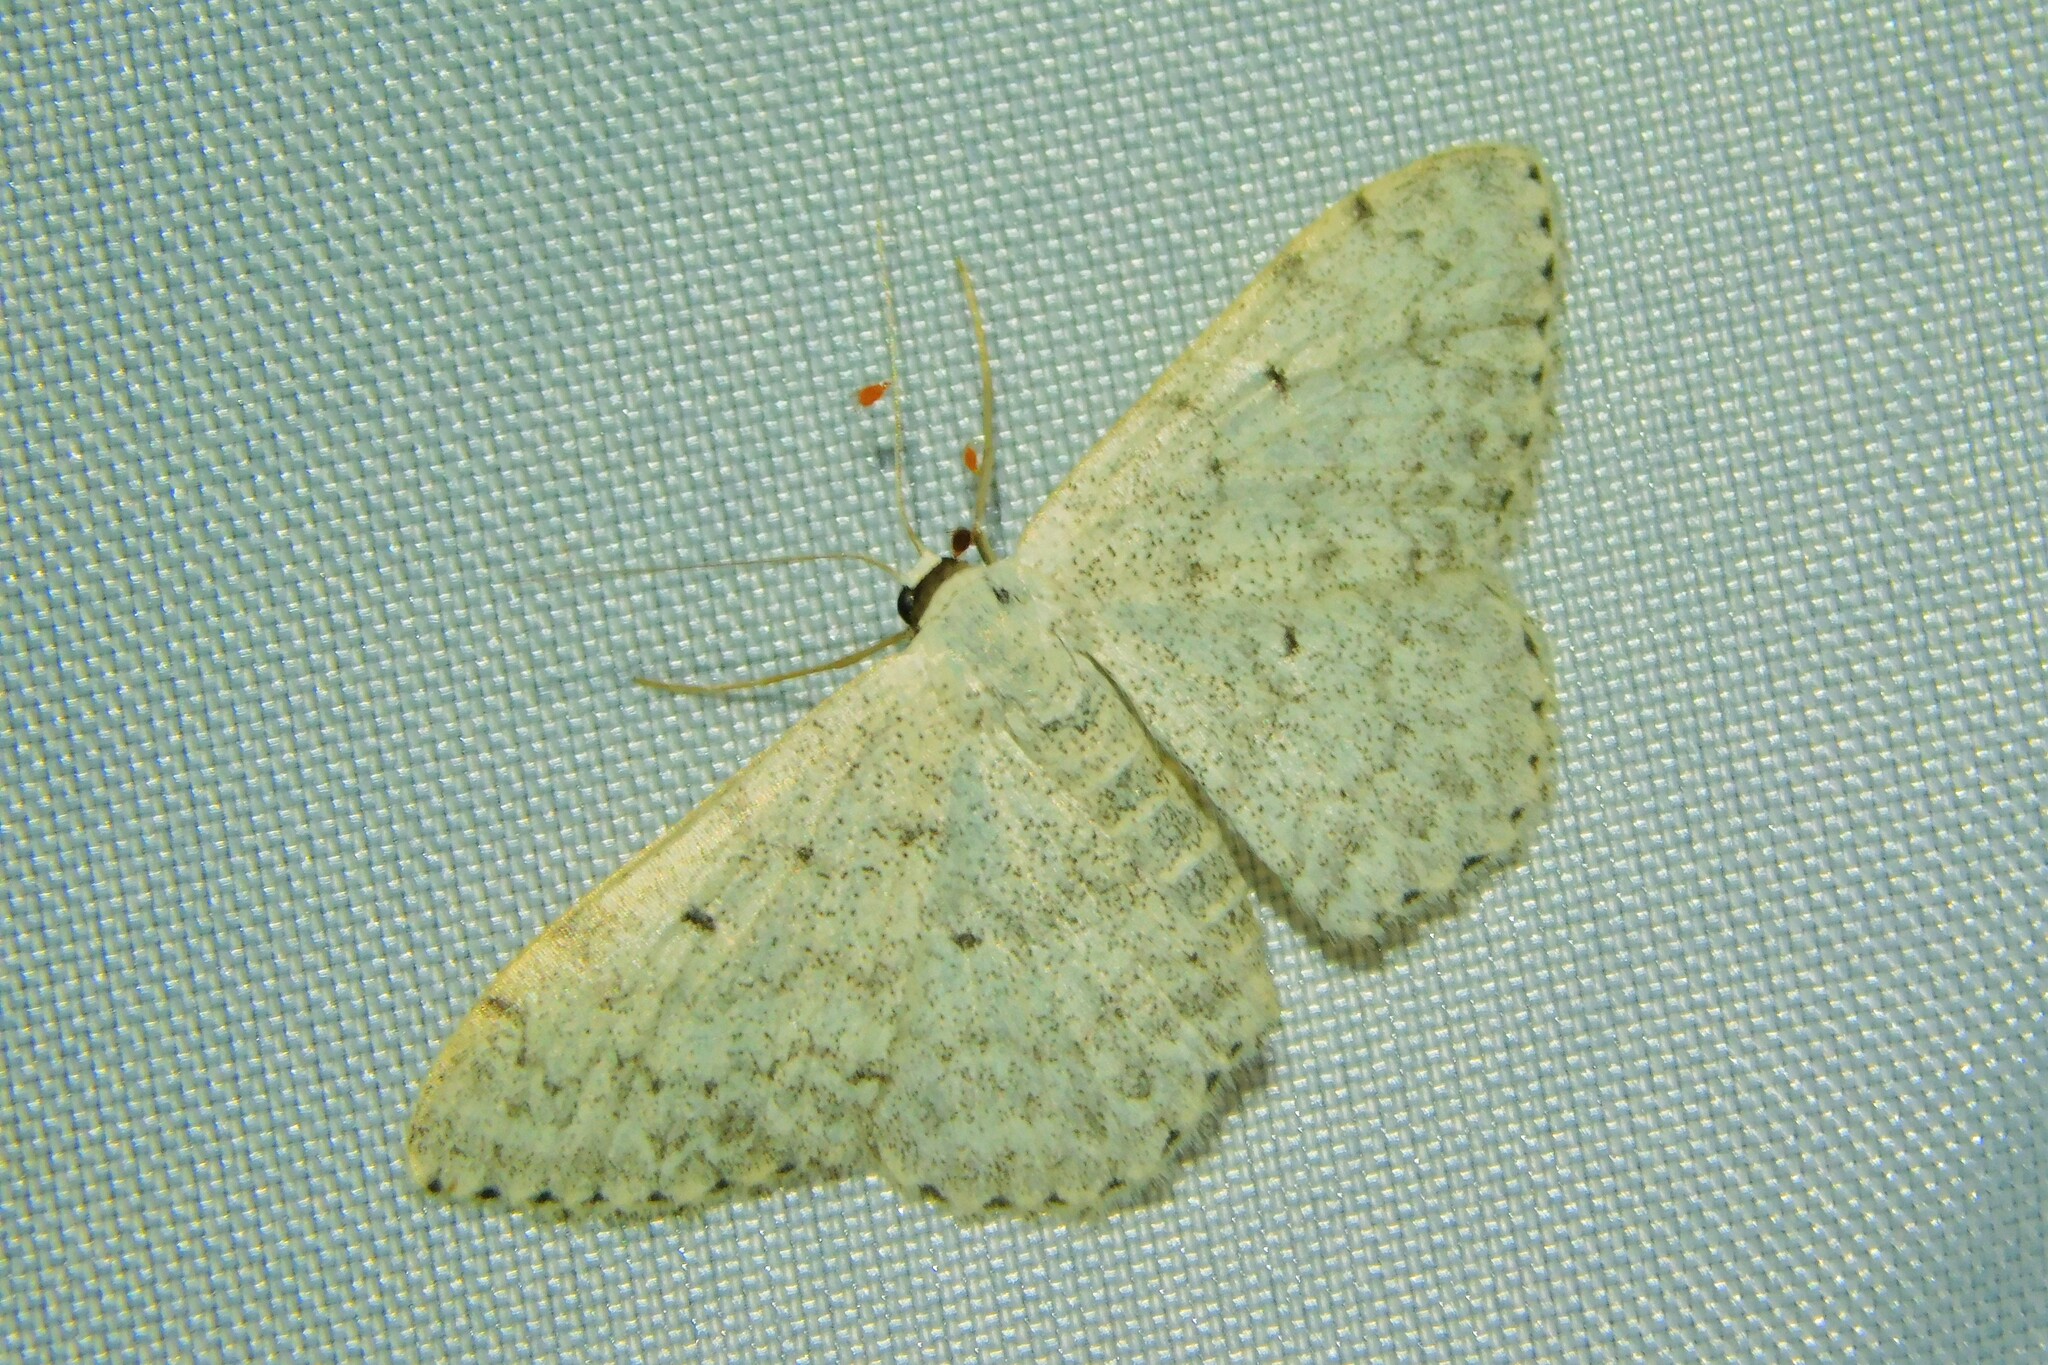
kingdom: Animalia
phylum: Arthropoda
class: Insecta
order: Lepidoptera
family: Geometridae
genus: Scopula
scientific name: Scopula marginepunctata
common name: Mullein wave
